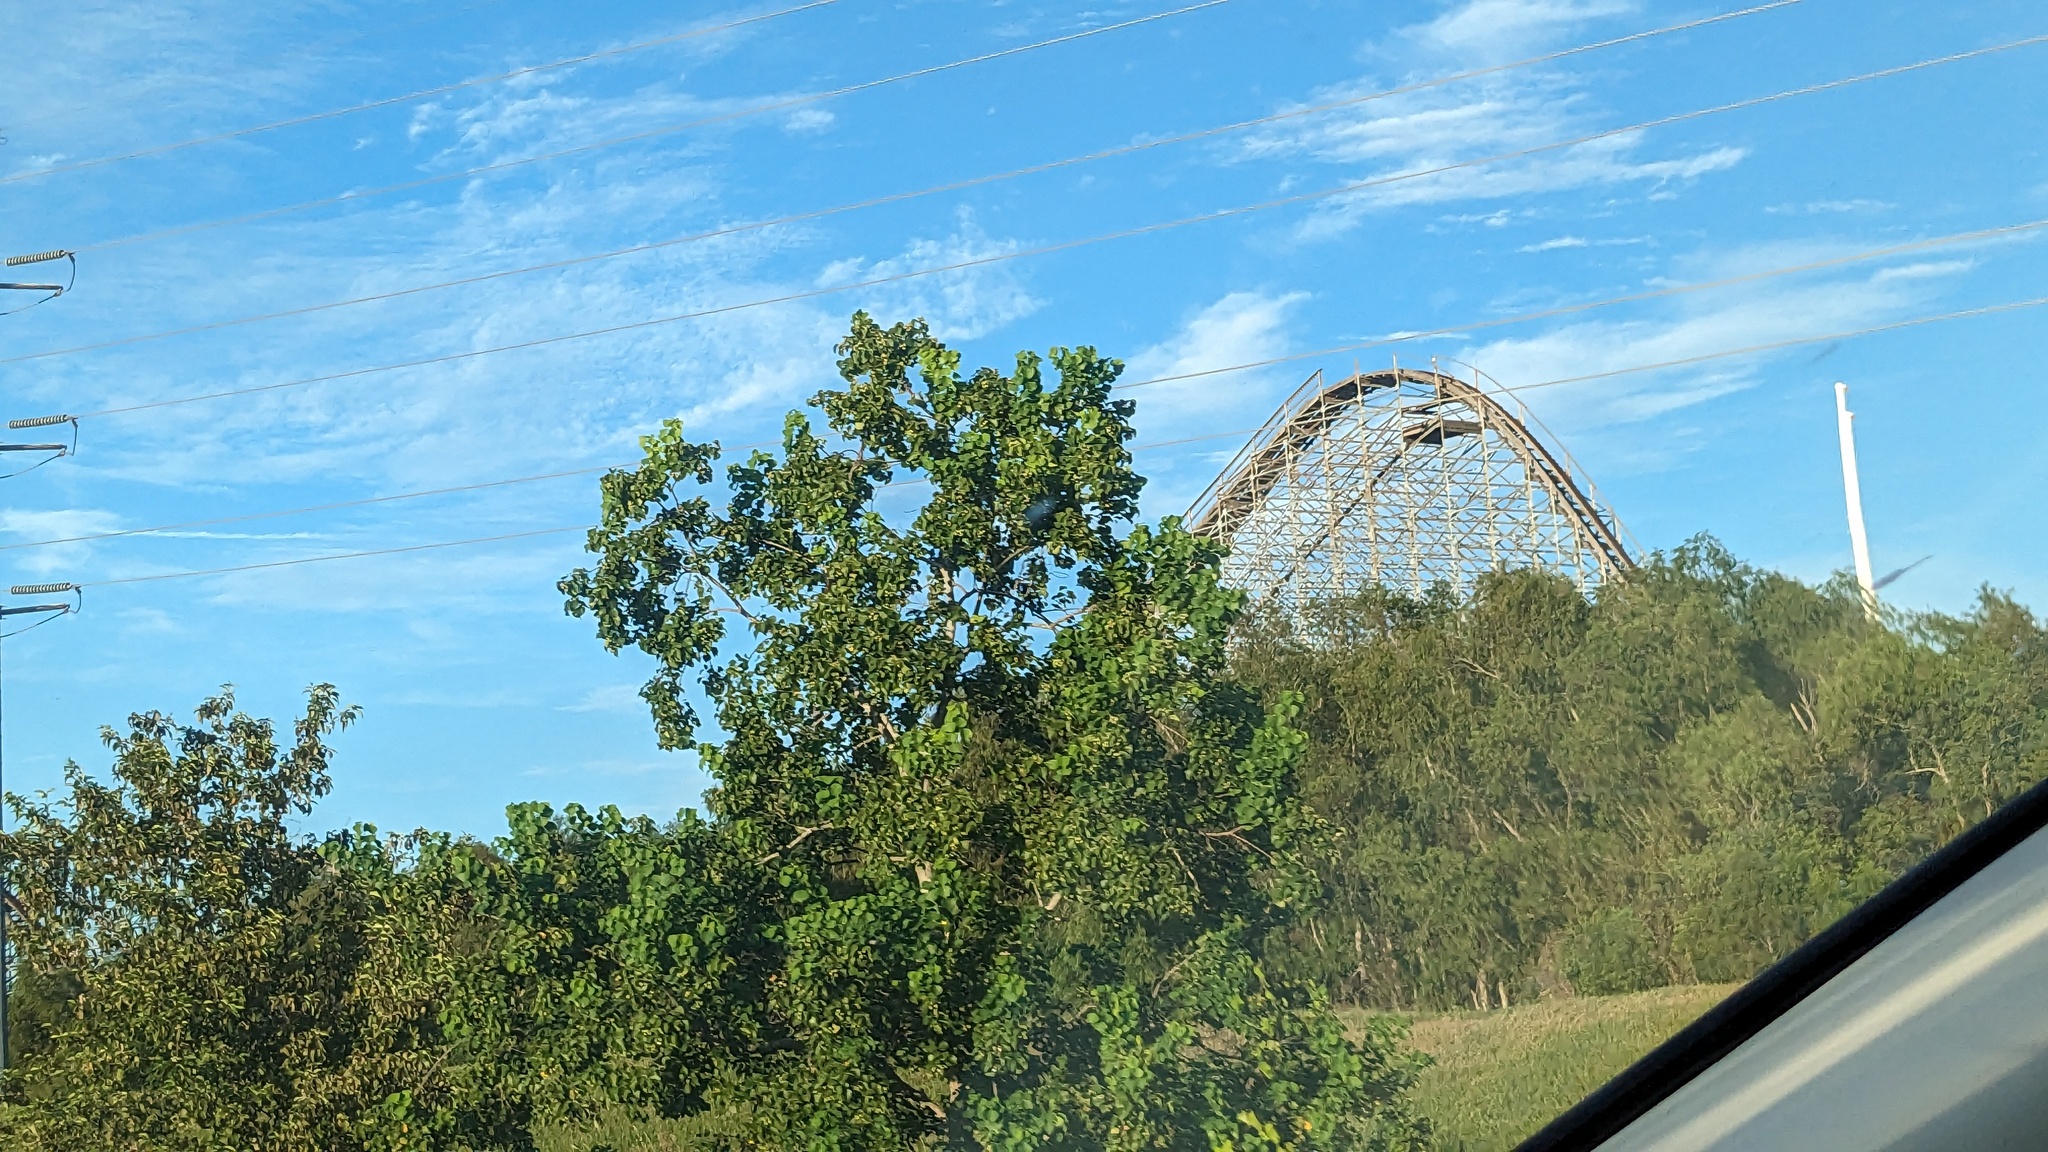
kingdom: Plantae
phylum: Tracheophyta
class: Magnoliopsida
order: Malpighiales
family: Euphorbiaceae
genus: Triadica
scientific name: Triadica sebifera
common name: Chinese tallow
